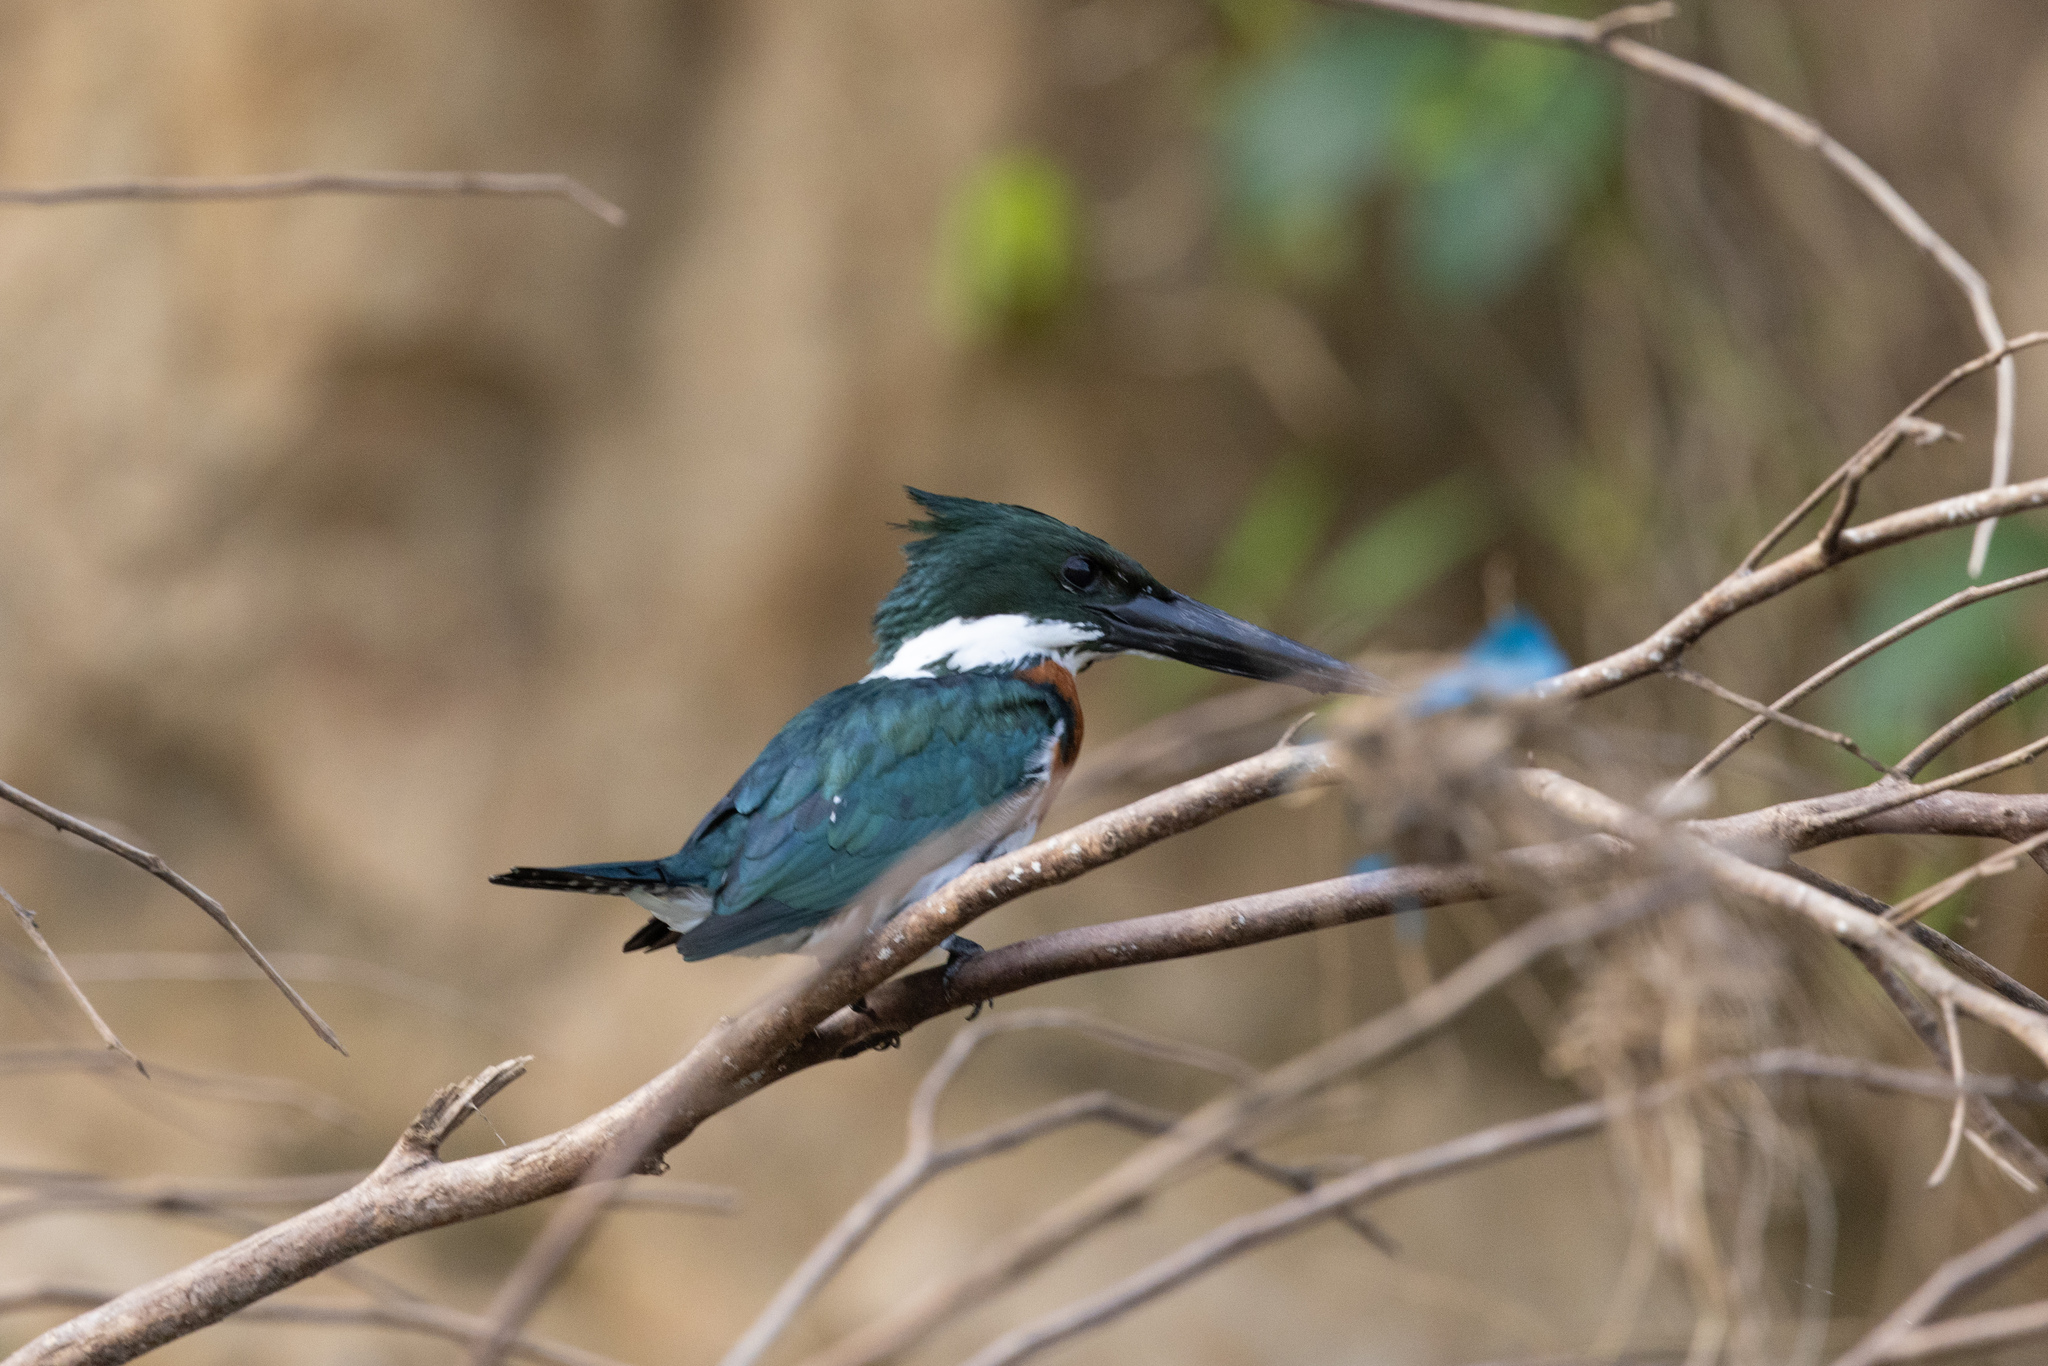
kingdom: Animalia
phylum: Chordata
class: Aves
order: Coraciiformes
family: Alcedinidae
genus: Chloroceryle
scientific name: Chloroceryle amazona
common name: Amazon kingfisher
